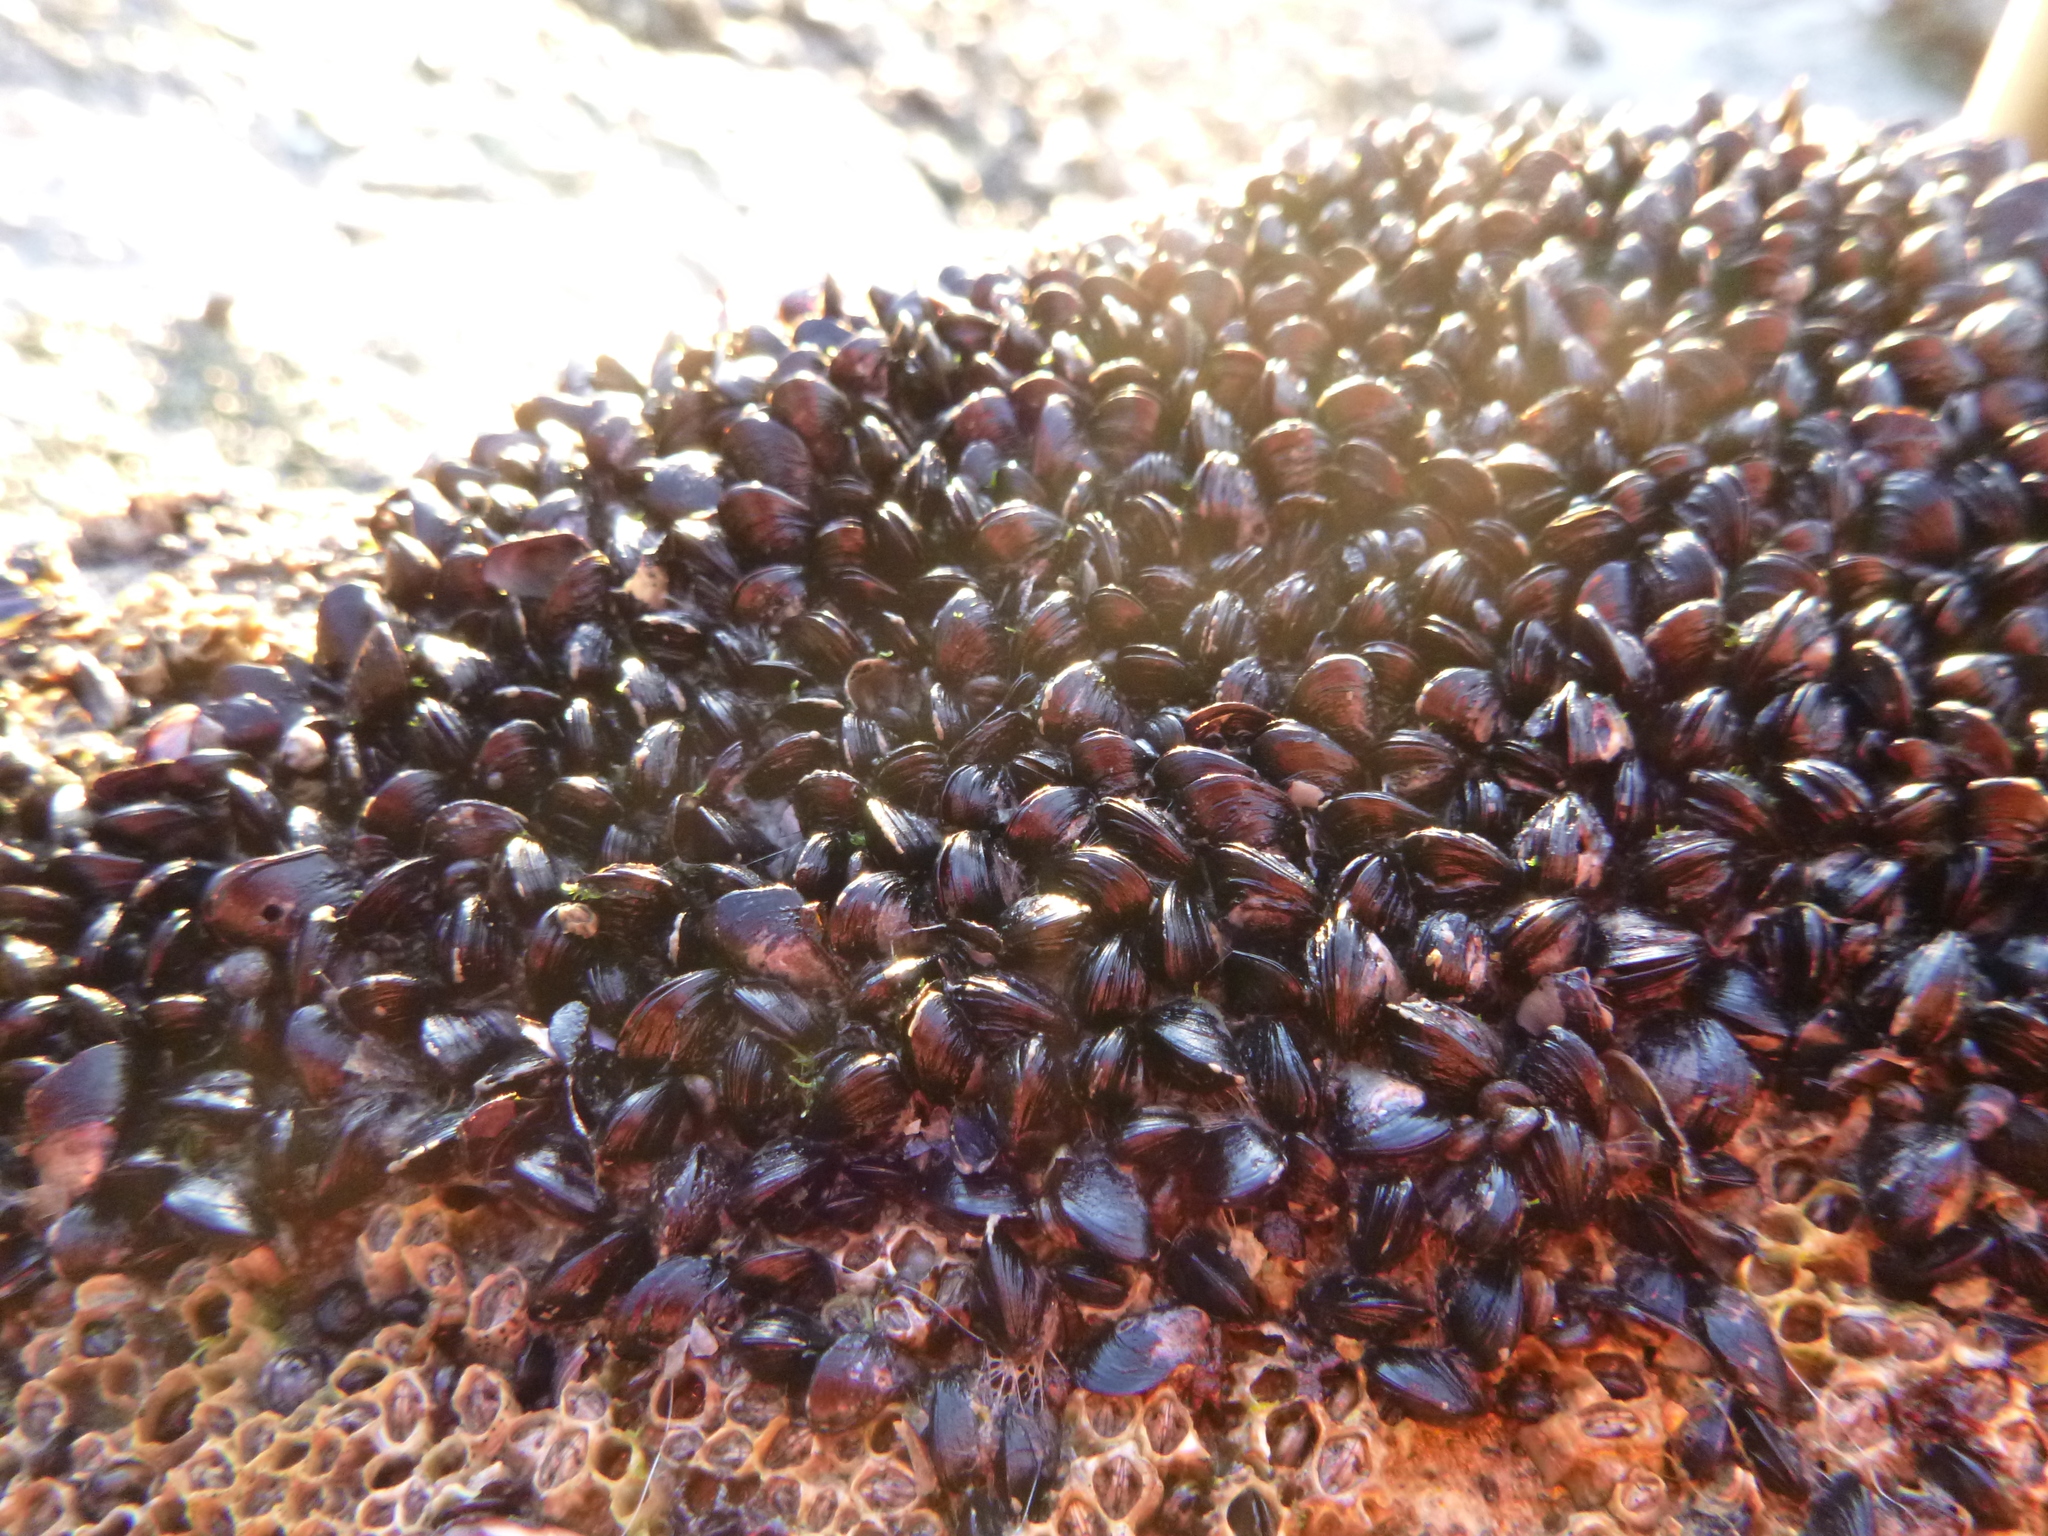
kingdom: Animalia
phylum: Mollusca
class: Bivalvia
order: Mytilida
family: Mytilidae
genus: Xenostrobus
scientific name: Xenostrobus neozelanicus
